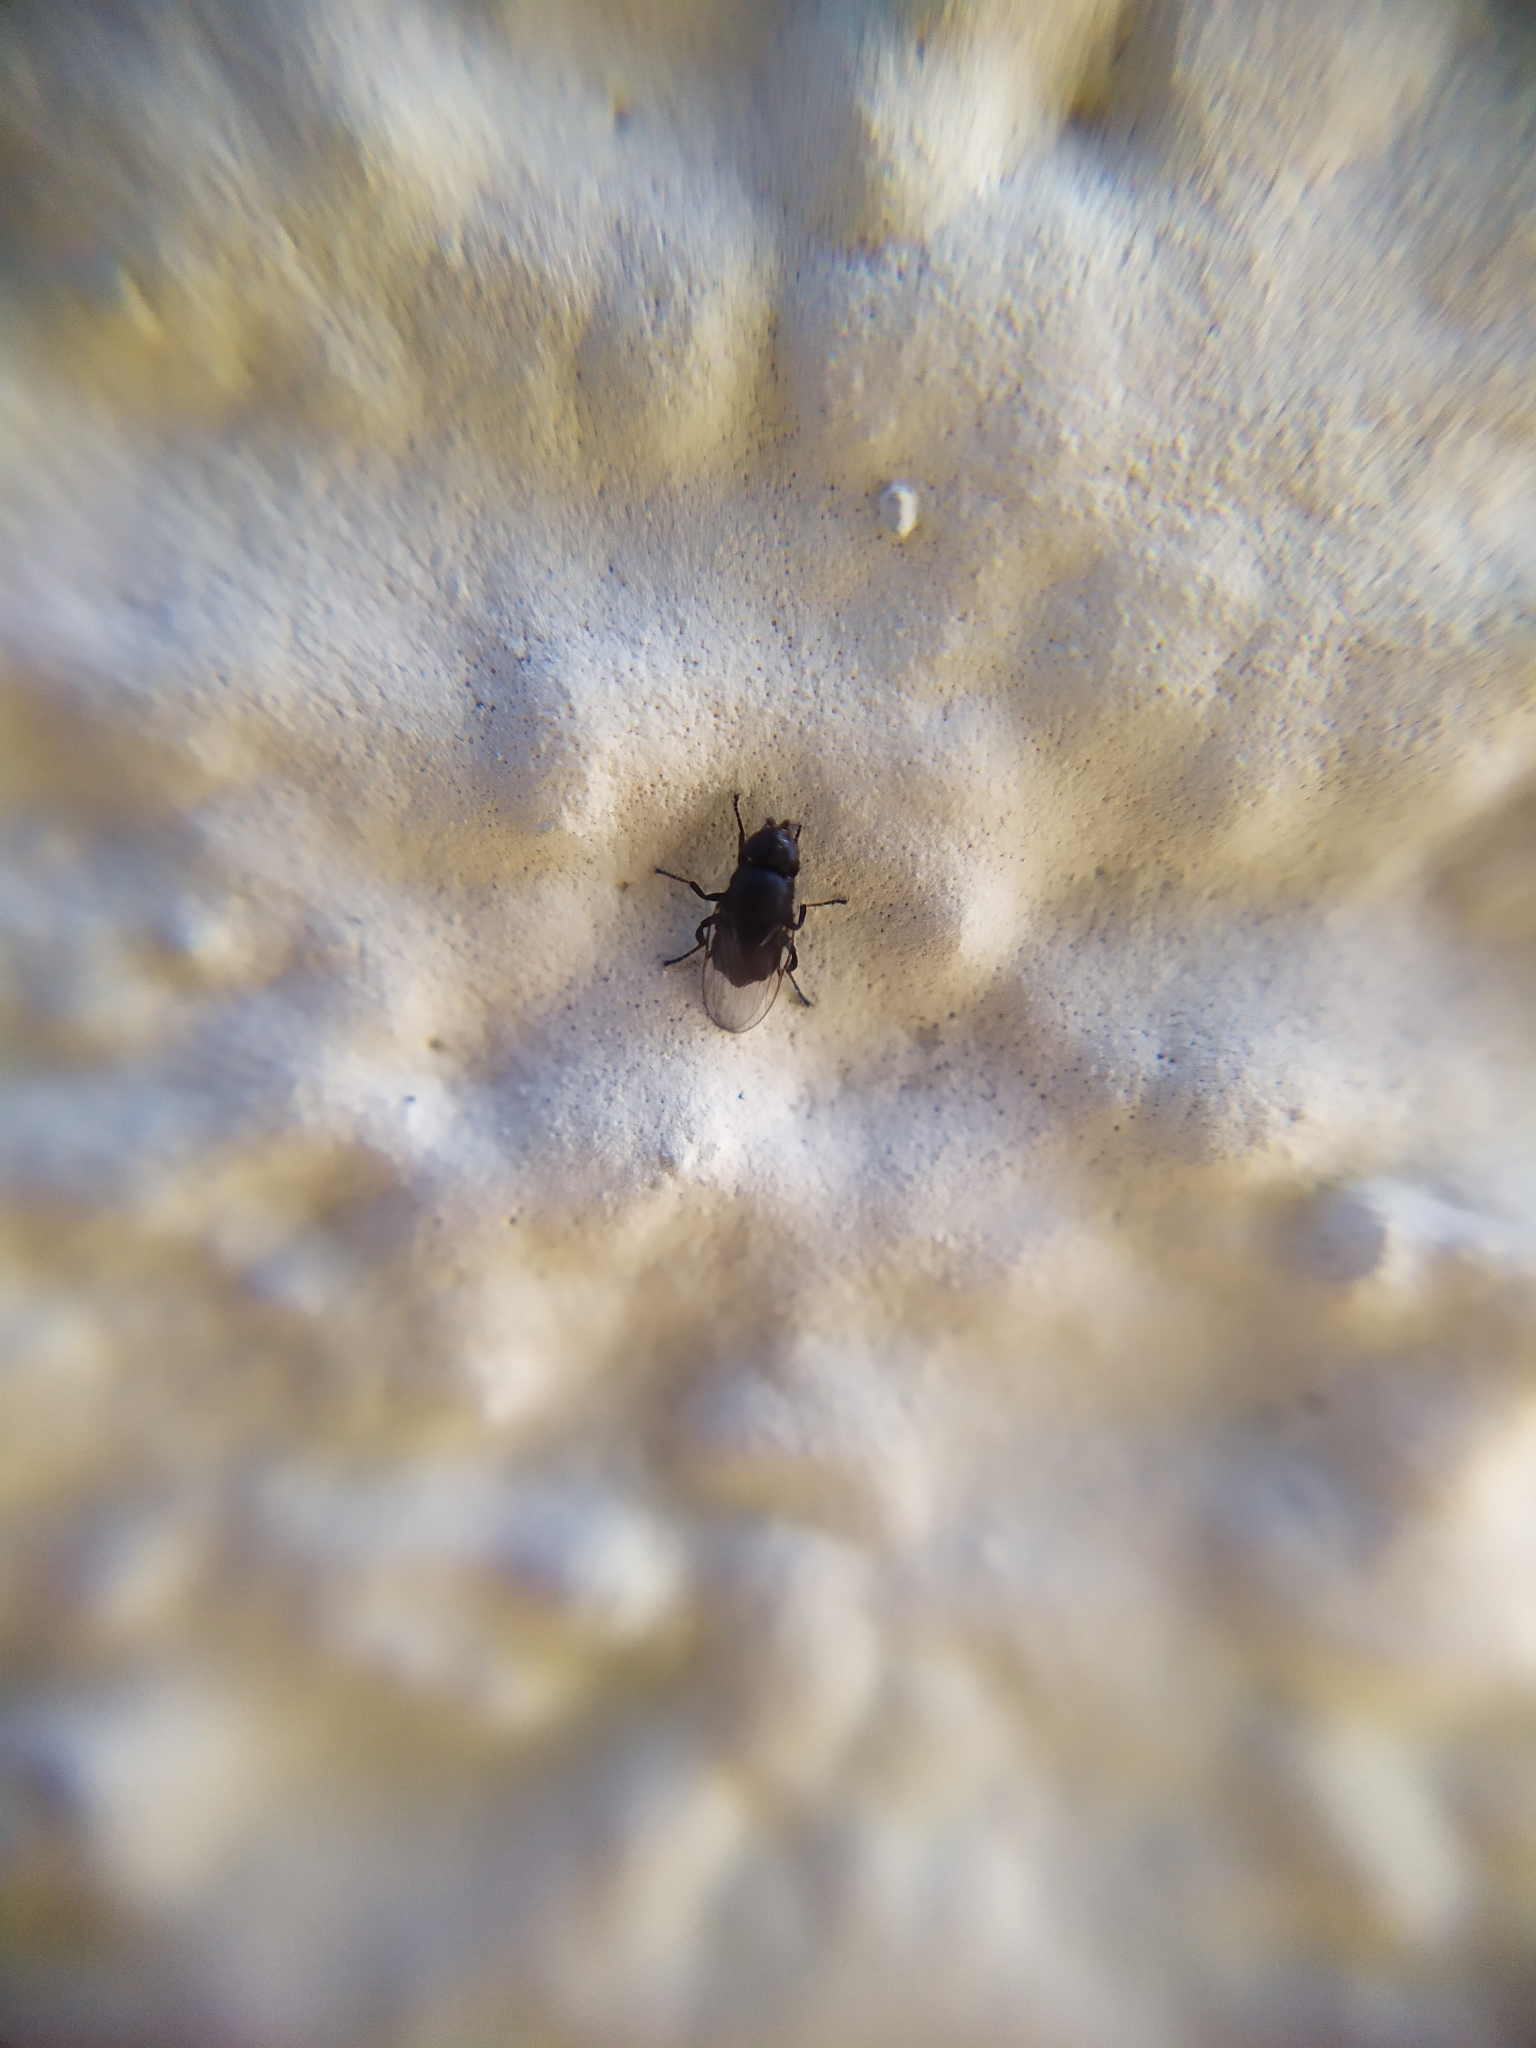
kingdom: Animalia
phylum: Arthropoda
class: Insecta
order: Diptera
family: Chloropidae
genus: Polyodaspis
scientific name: Polyodaspis ruficornis
